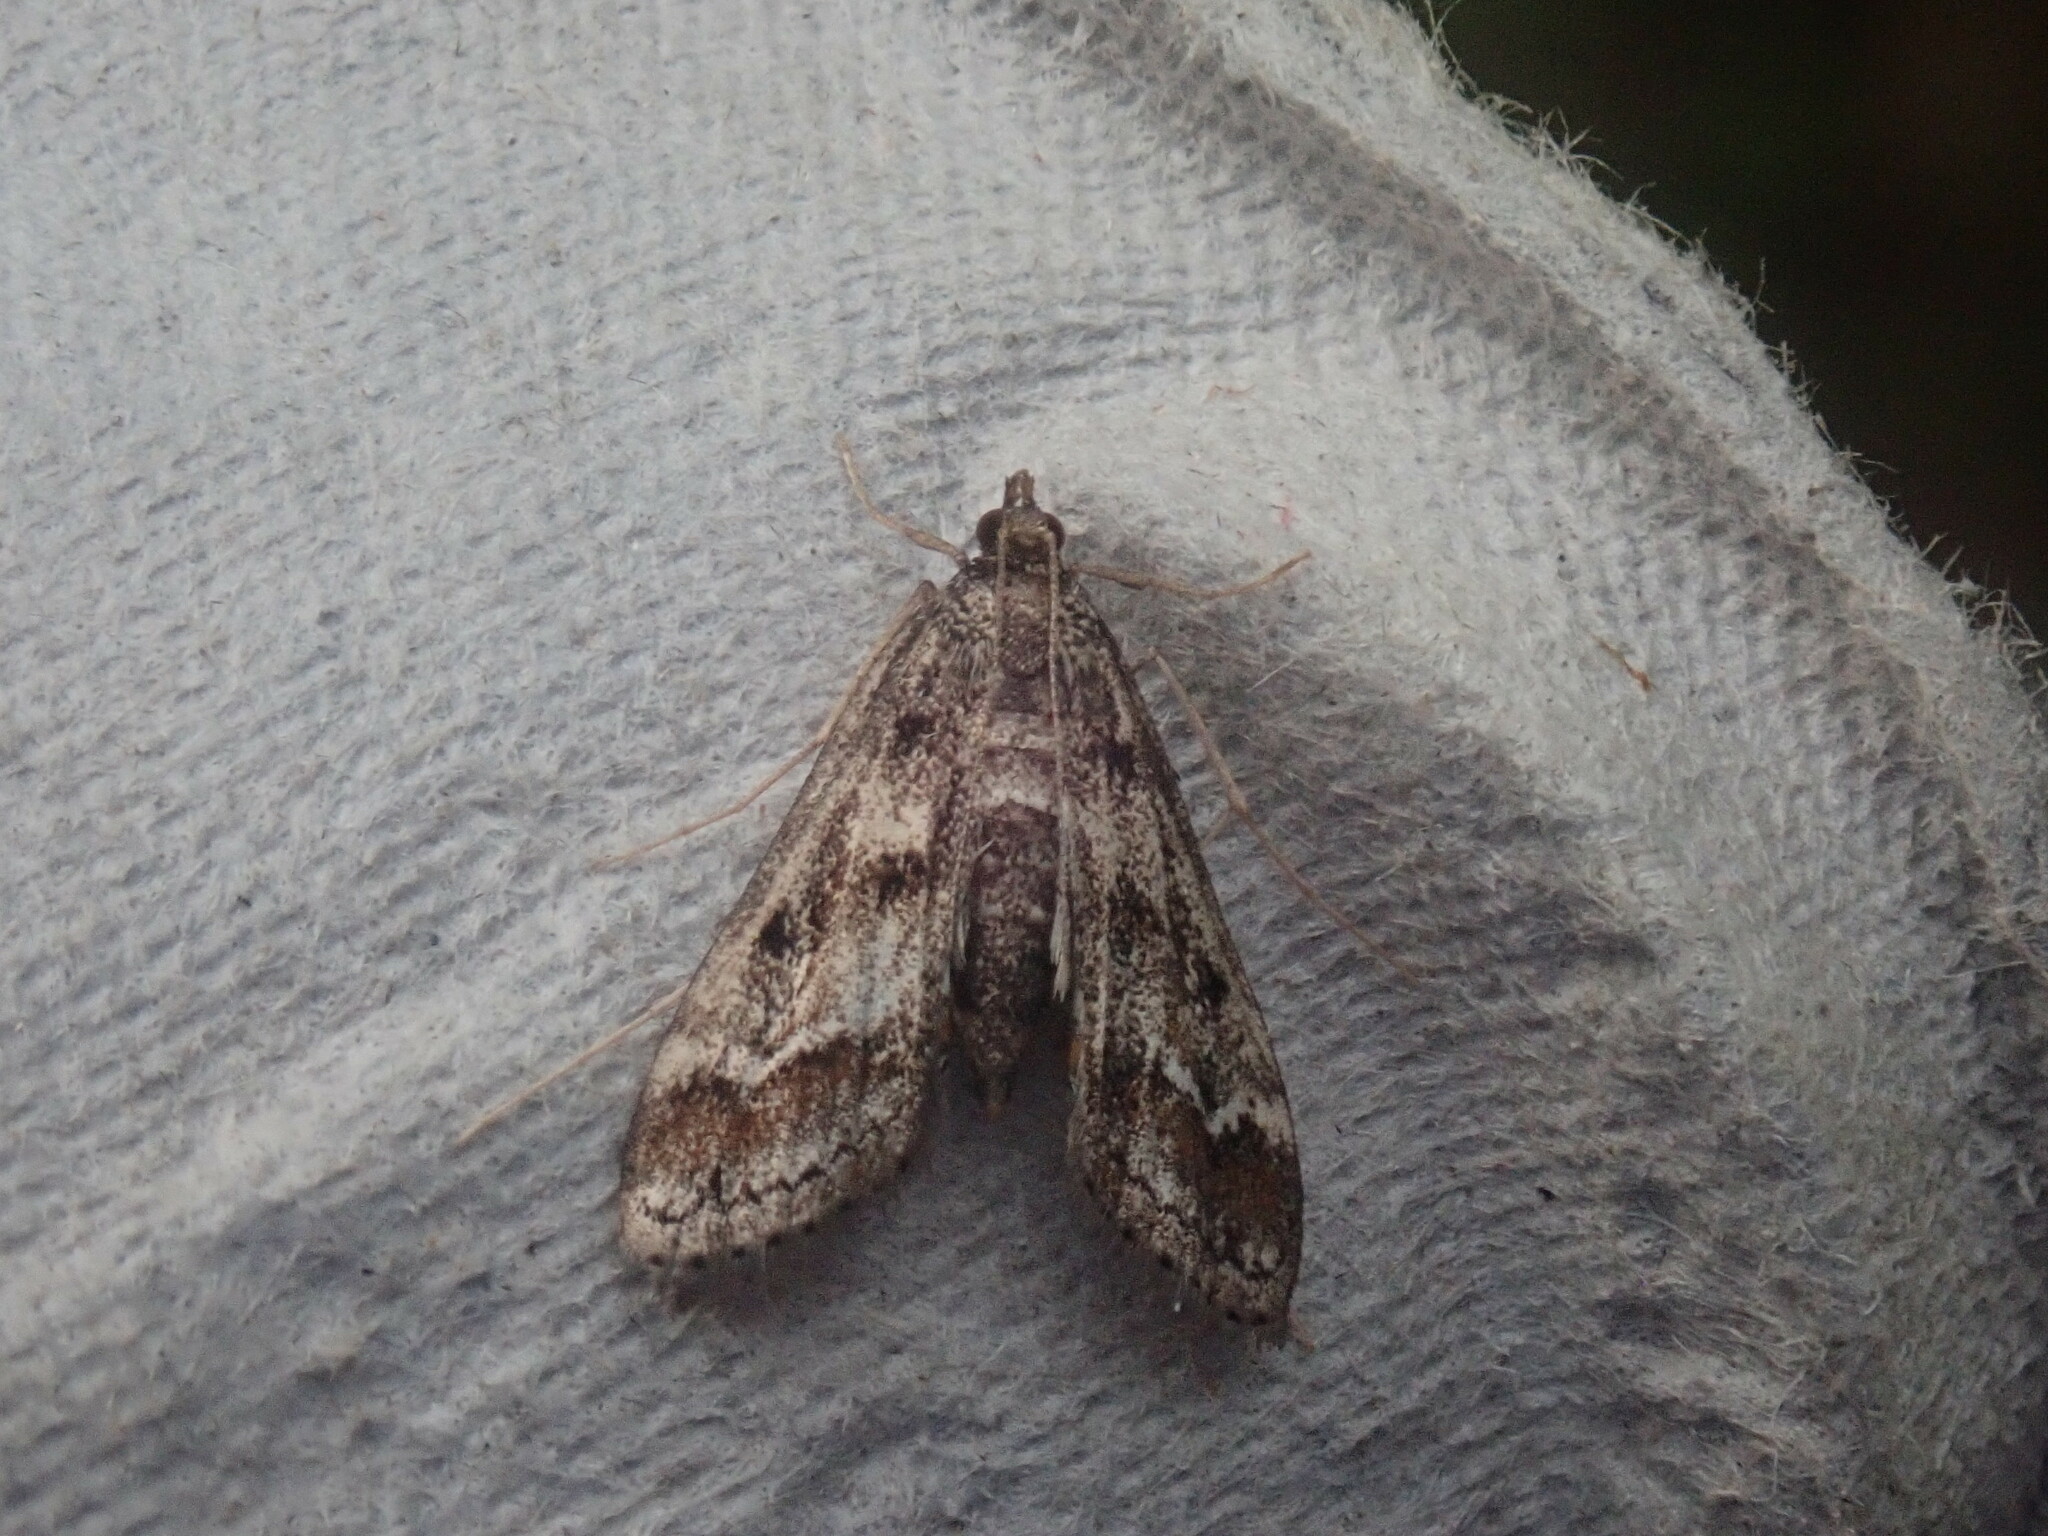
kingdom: Animalia
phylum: Arthropoda
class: Insecta
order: Lepidoptera
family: Crambidae
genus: Parapoynx
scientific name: Parapoynx obscuralis
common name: American china-mark
